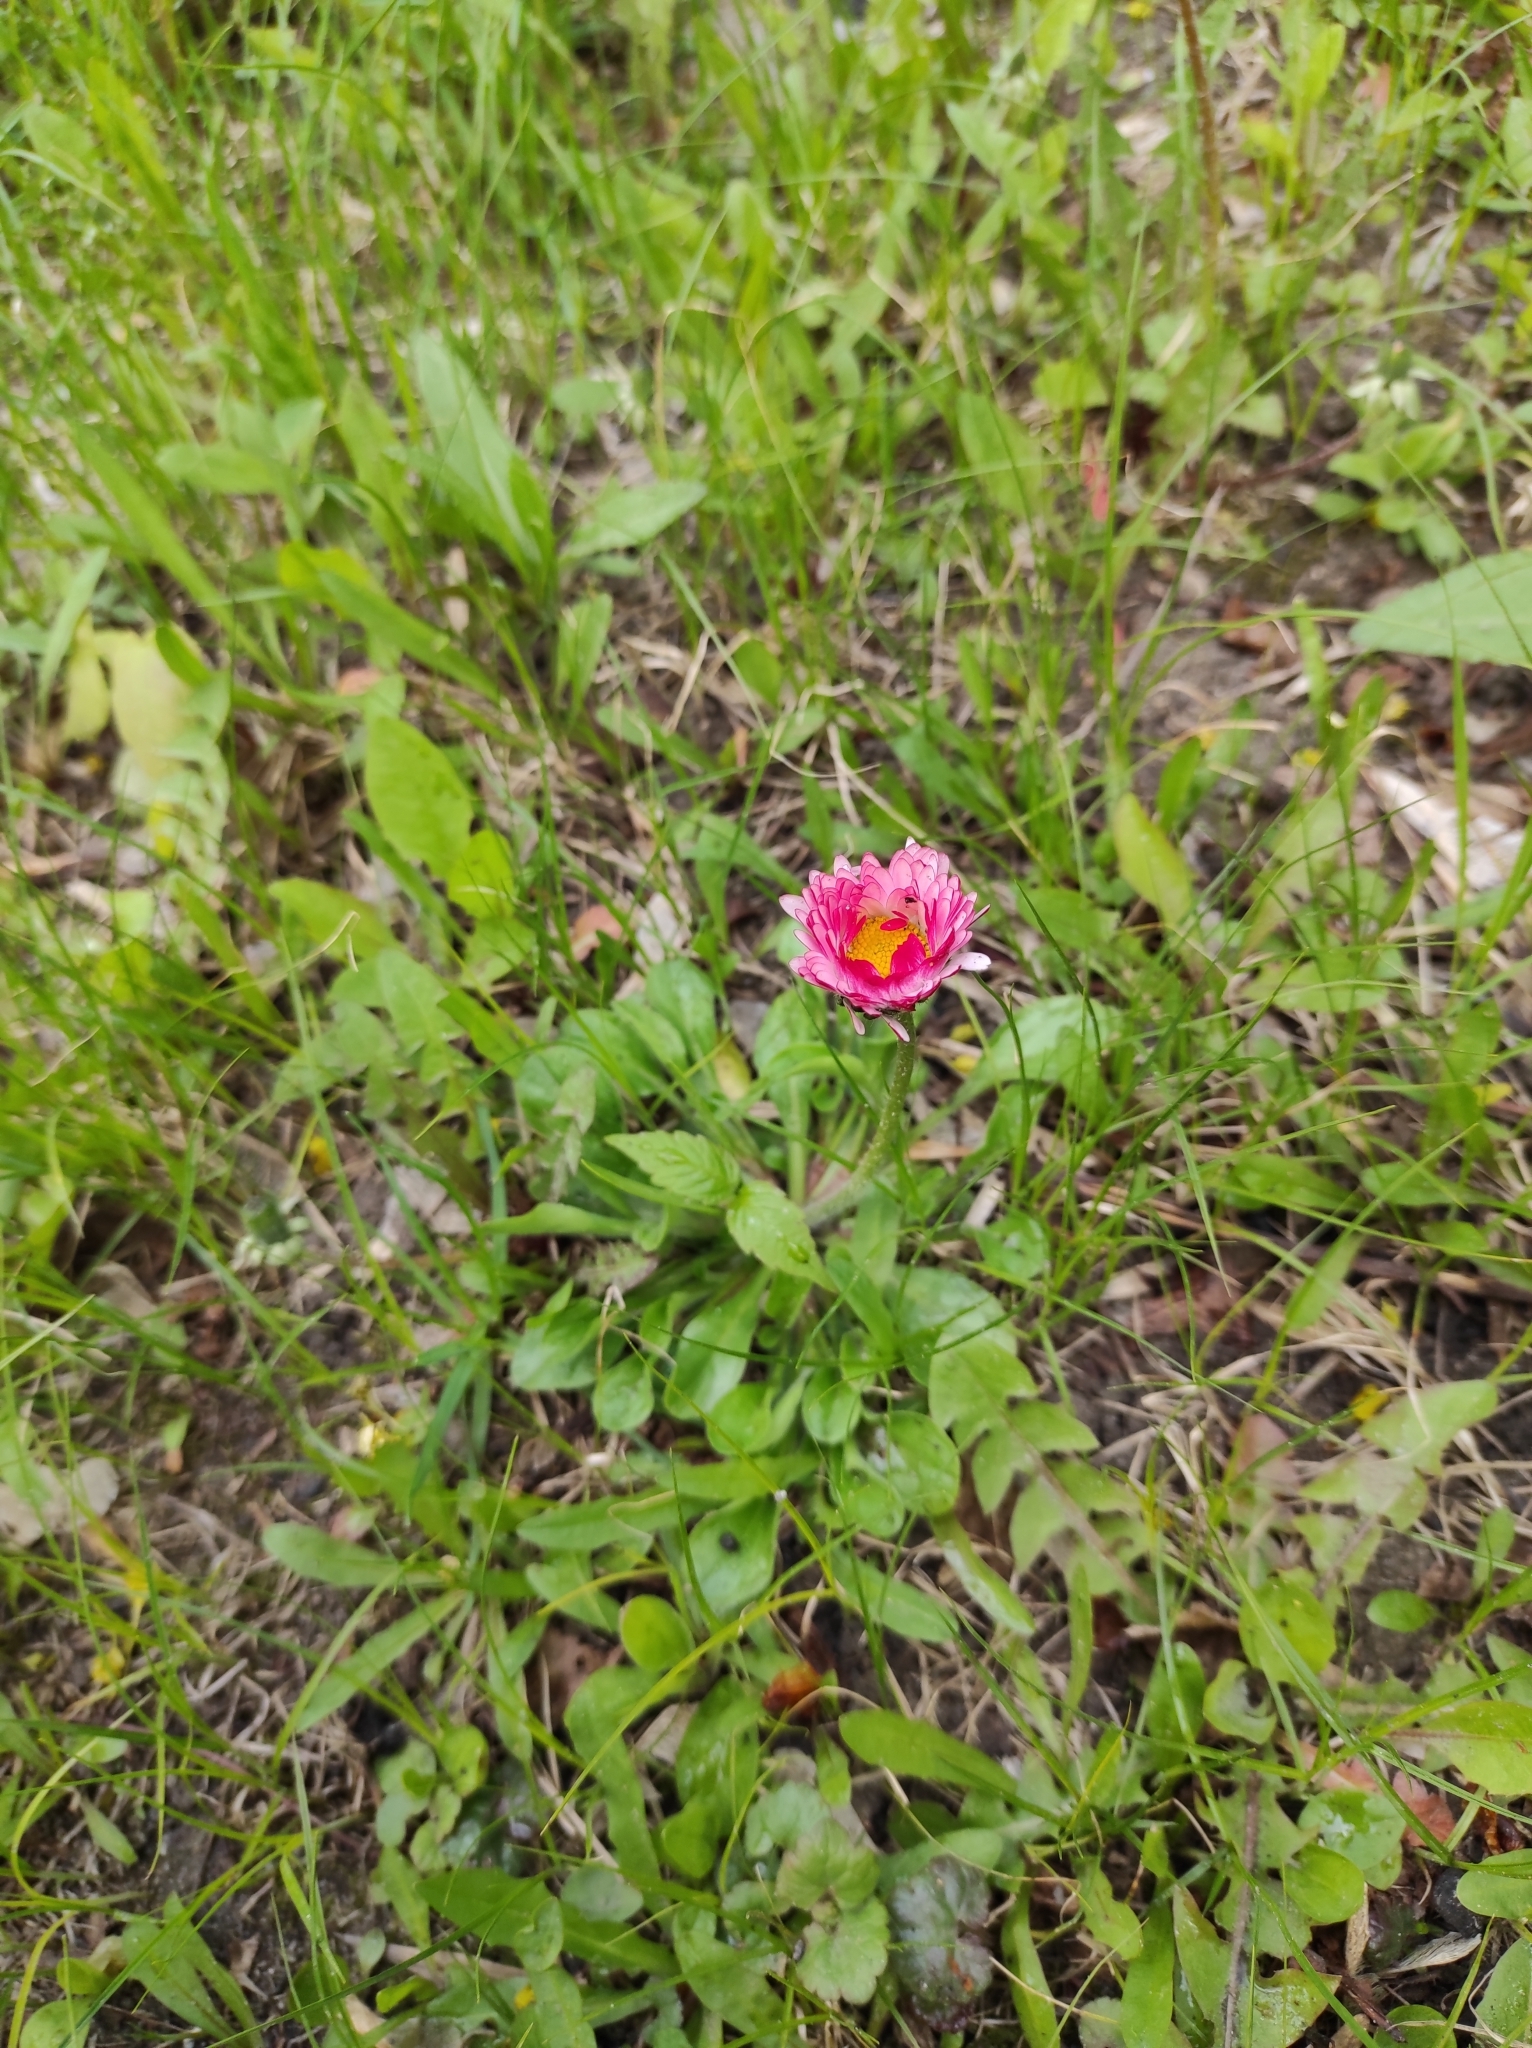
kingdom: Plantae
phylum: Tracheophyta
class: Magnoliopsida
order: Asterales
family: Asteraceae
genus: Bellis
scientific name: Bellis perennis
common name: Lawndaisy
